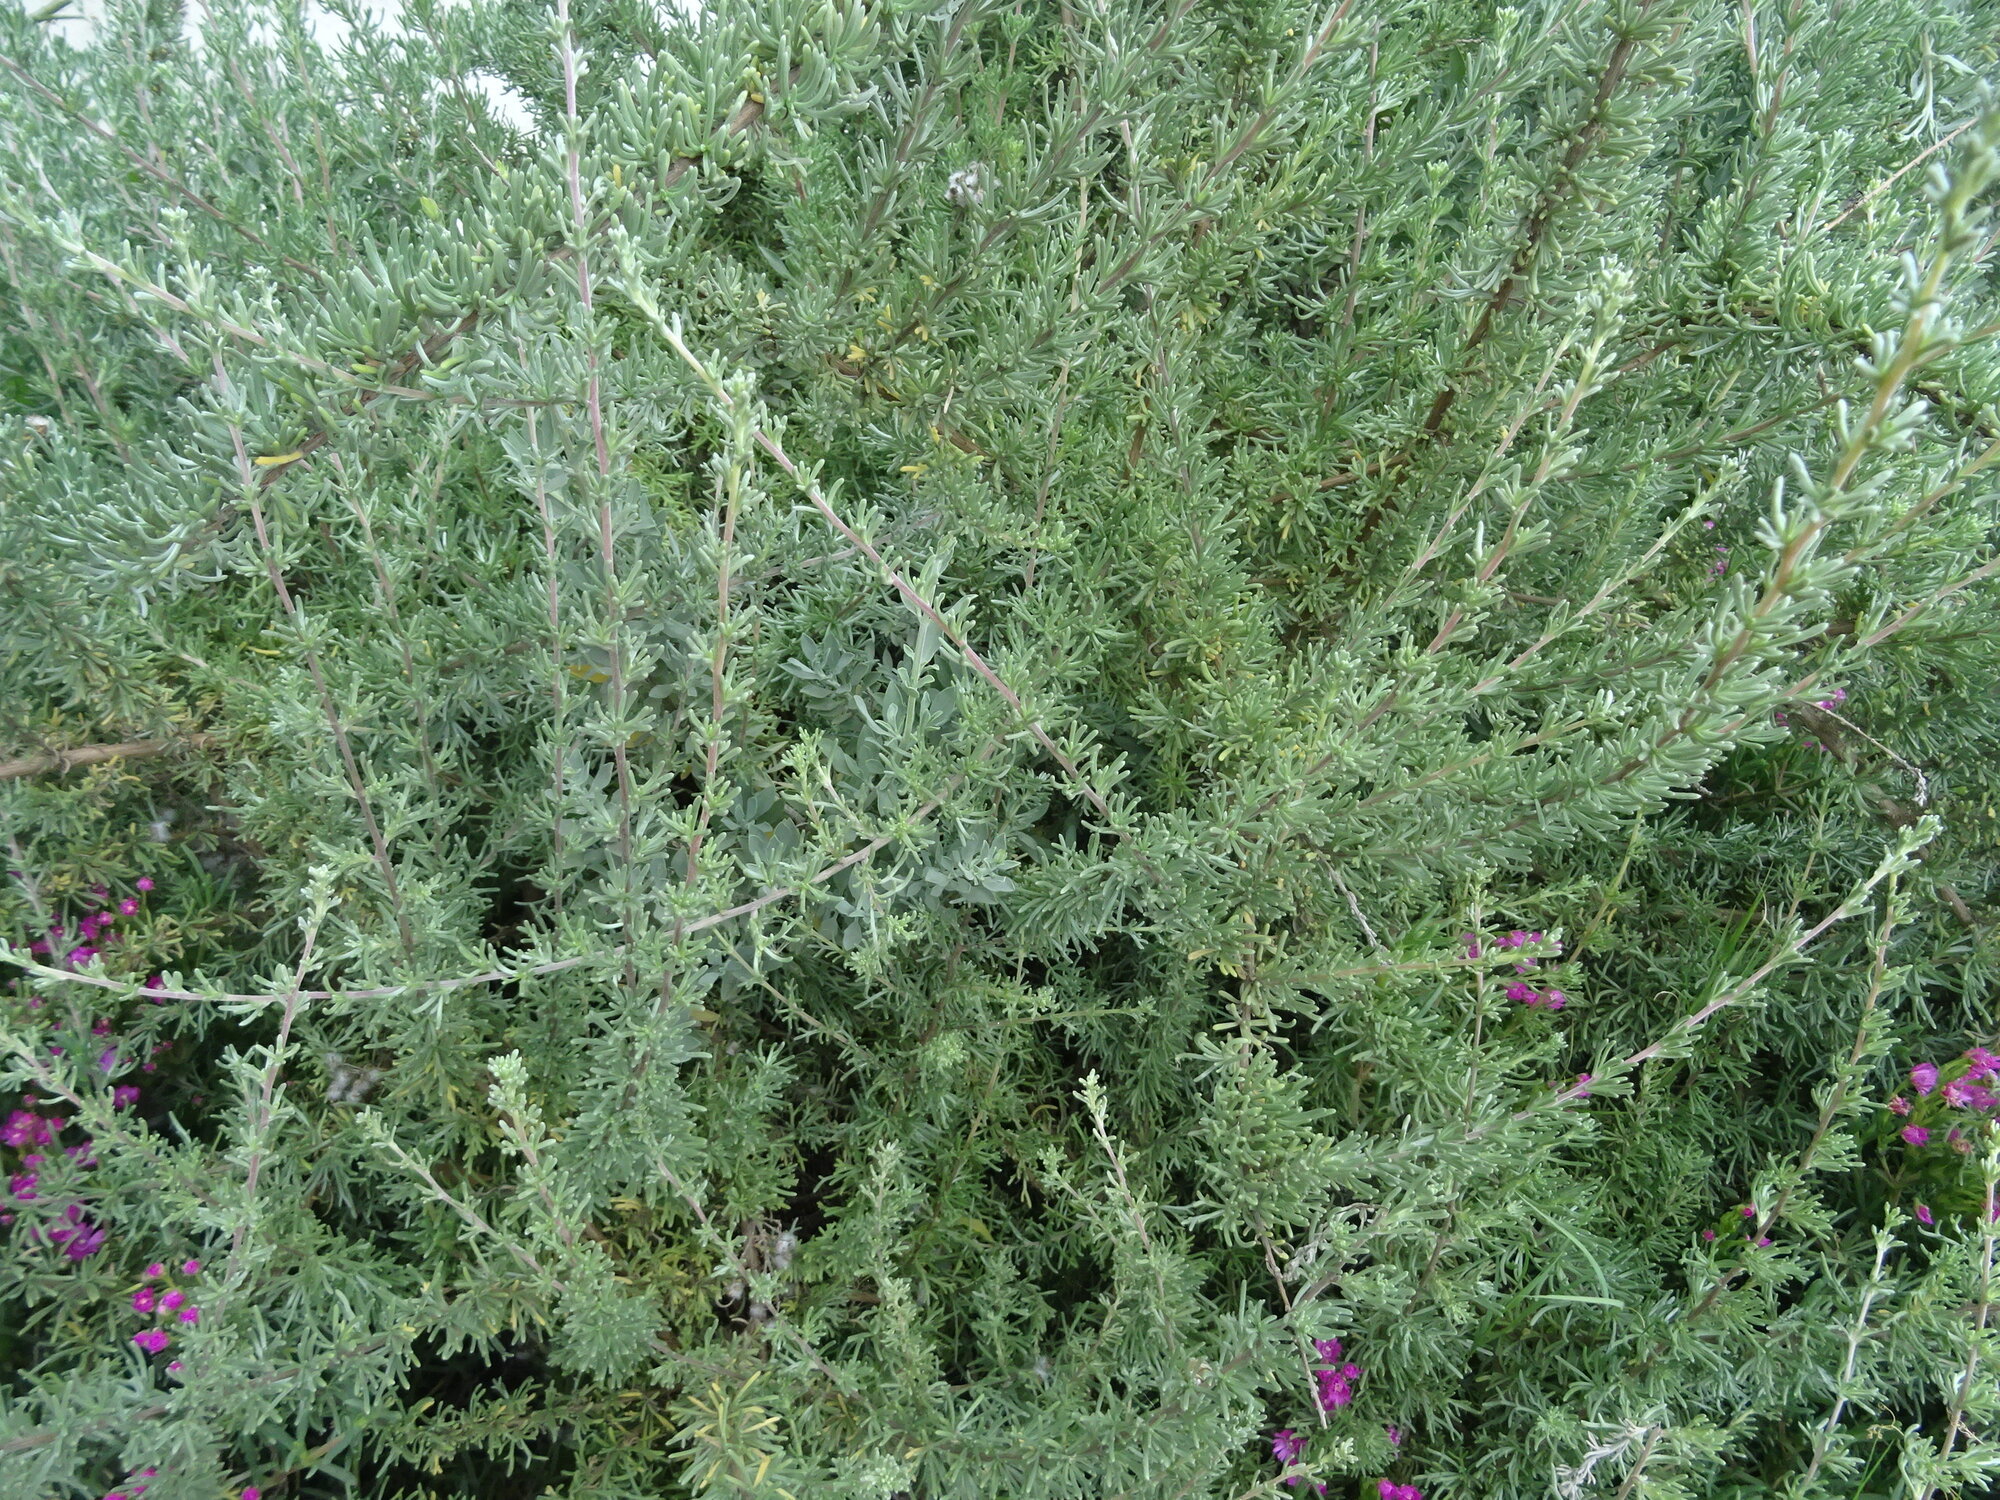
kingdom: Plantae
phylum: Tracheophyta
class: Magnoliopsida
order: Asterales
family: Asteraceae
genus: Eriocephalus
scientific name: Eriocephalus africanus
